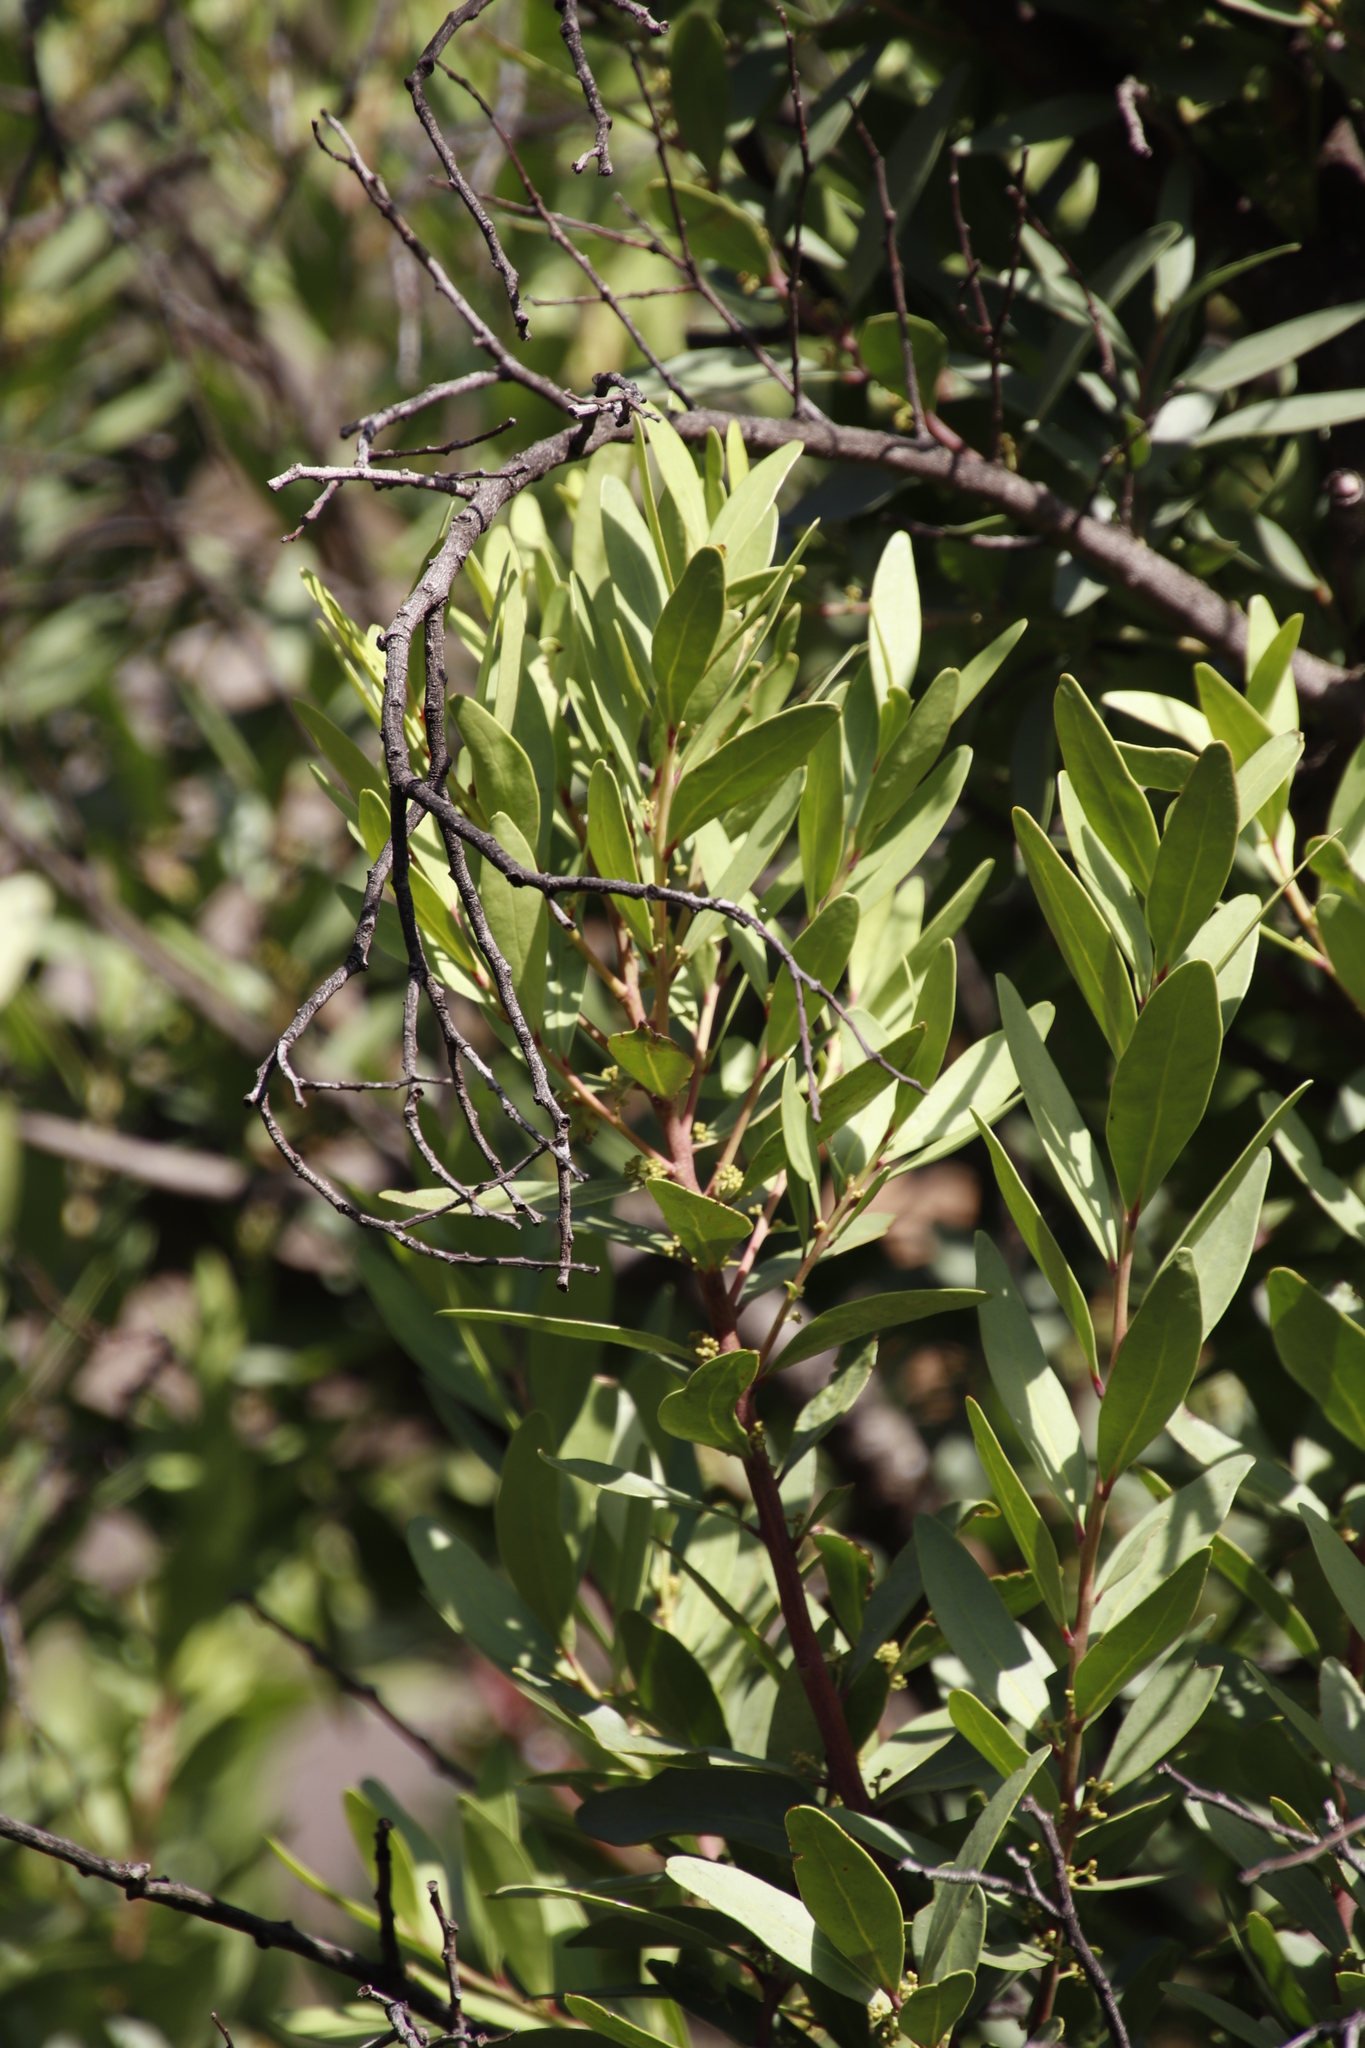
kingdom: Plantae
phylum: Tracheophyta
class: Magnoliopsida
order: Celastrales
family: Celastraceae
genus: Gymnosporia
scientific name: Gymnosporia laurina
